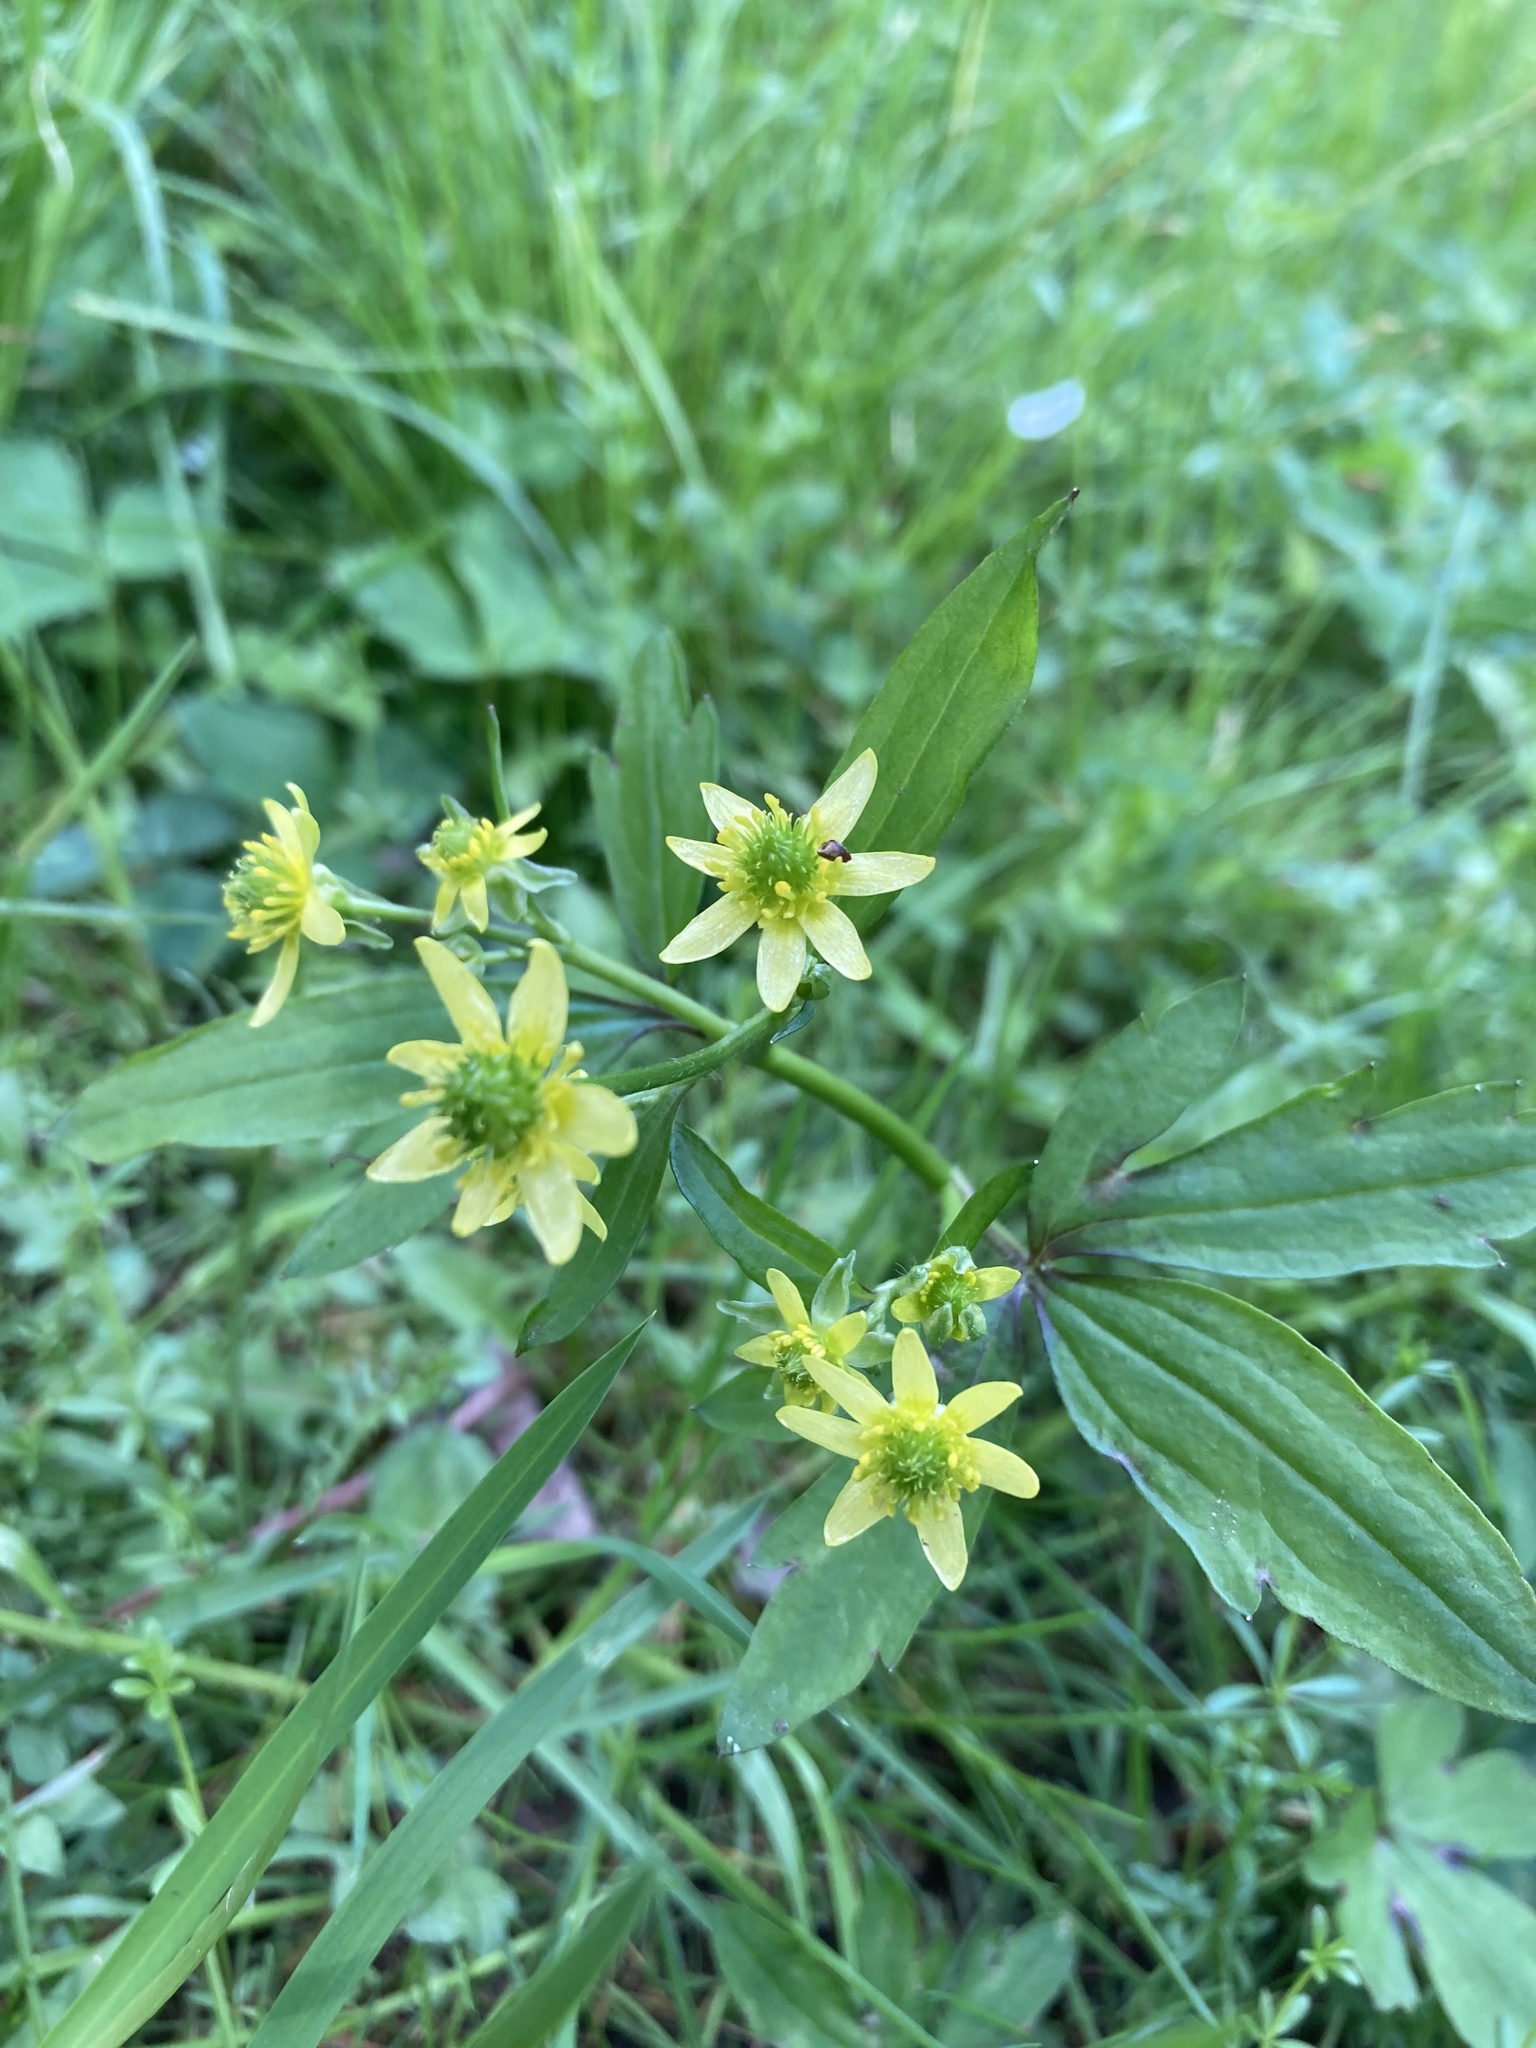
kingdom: Plantae
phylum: Tracheophyta
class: Magnoliopsida
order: Ranunculales
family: Ranunculaceae
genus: Ranunculus
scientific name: Ranunculus recurvatus
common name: Blisterwort
